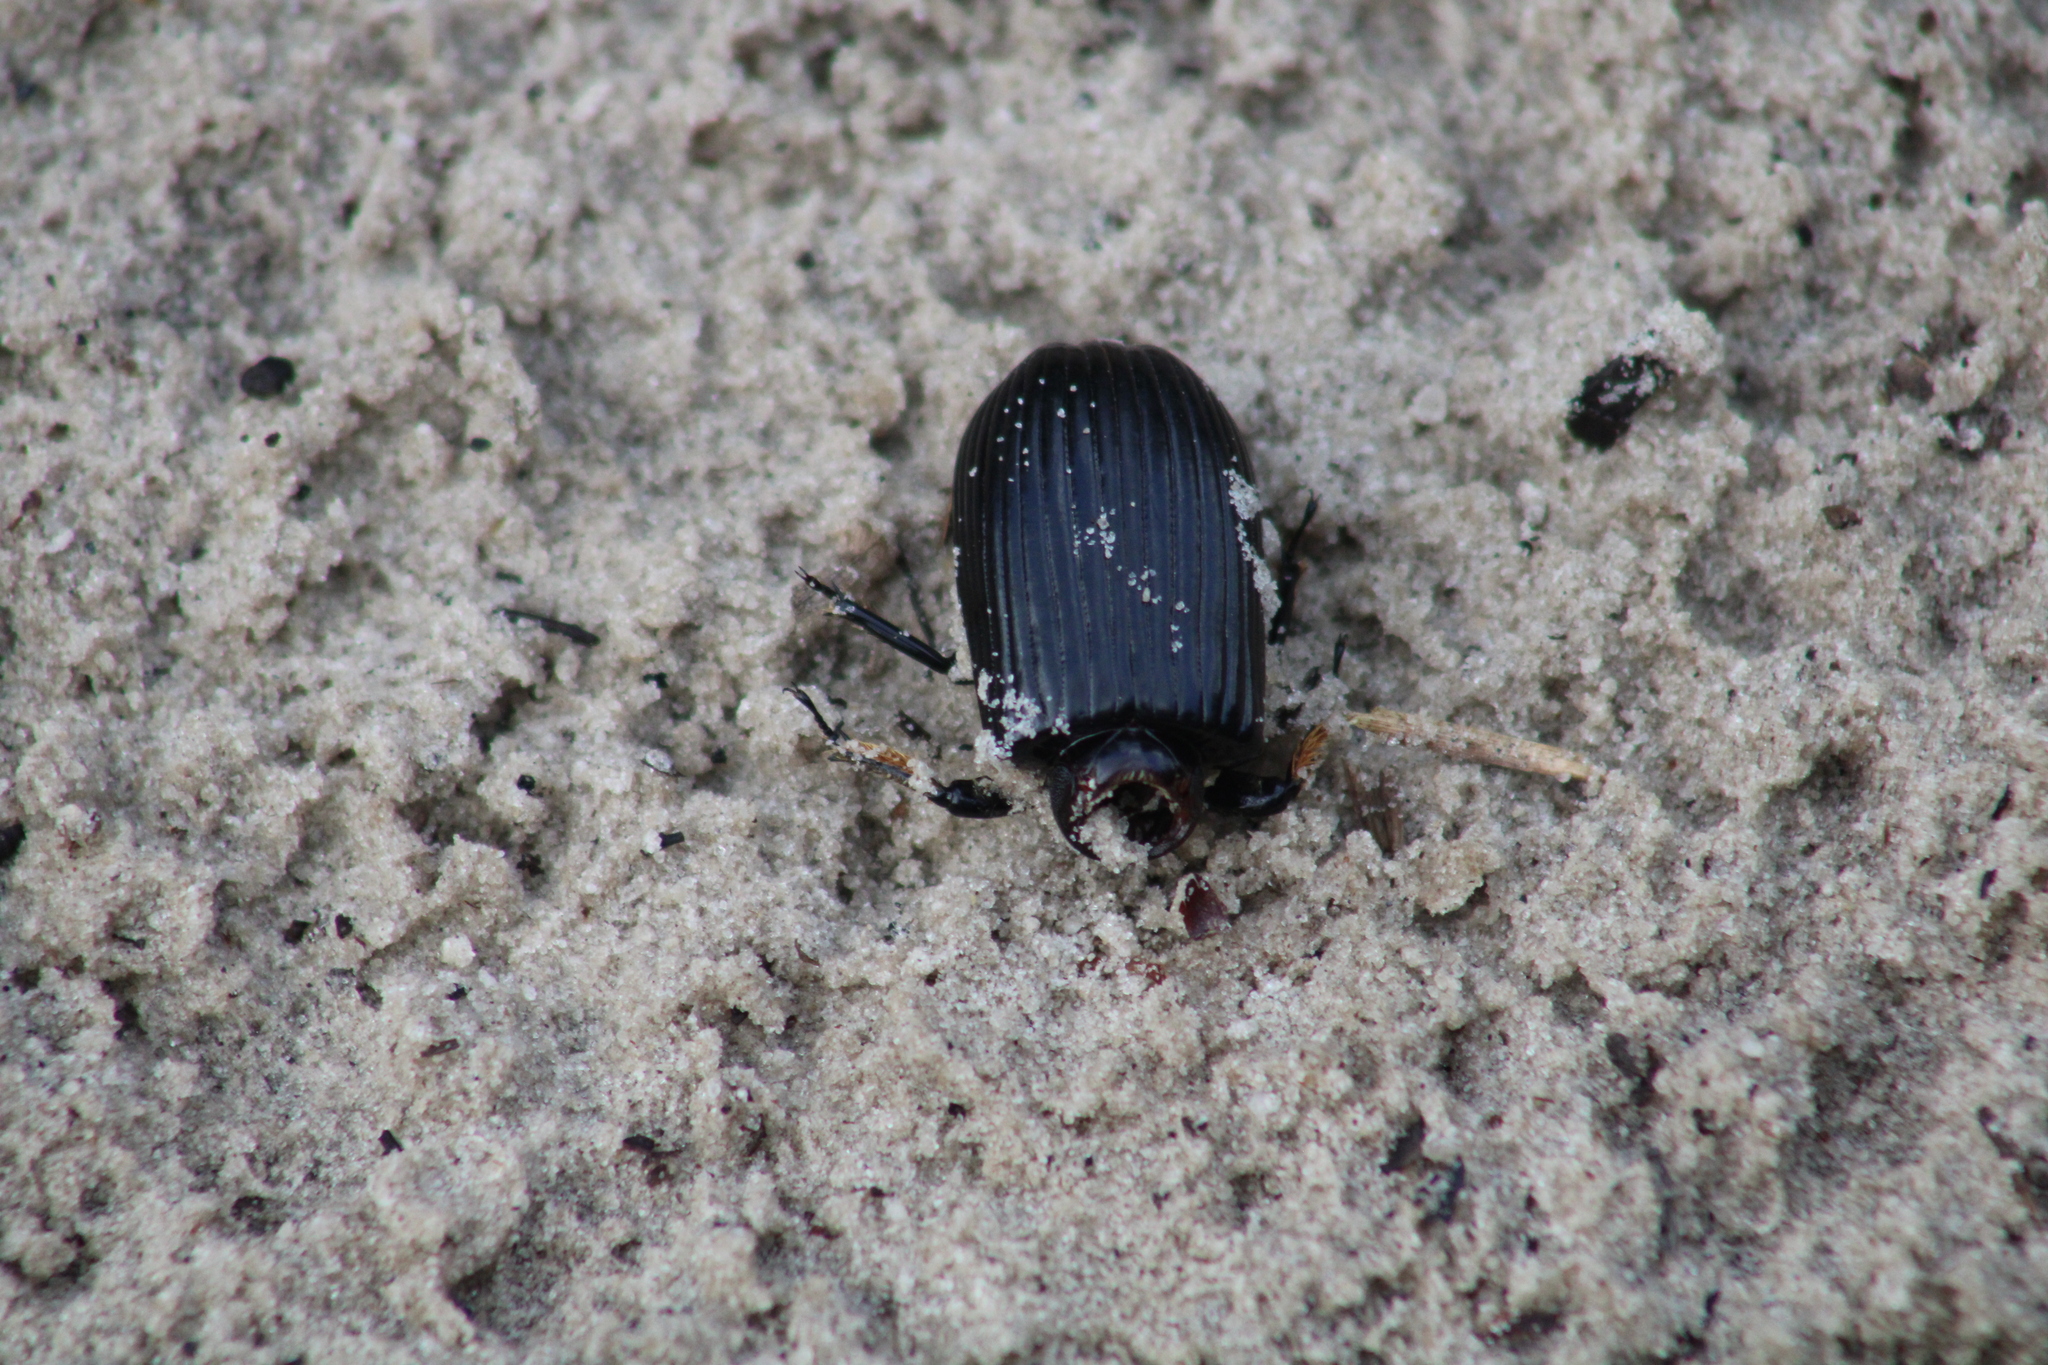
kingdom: Animalia
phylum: Arthropoda
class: Insecta
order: Coleoptera
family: Passalidae
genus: Odontotaenius
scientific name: Odontotaenius disjunctus
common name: Patent leather beetle
